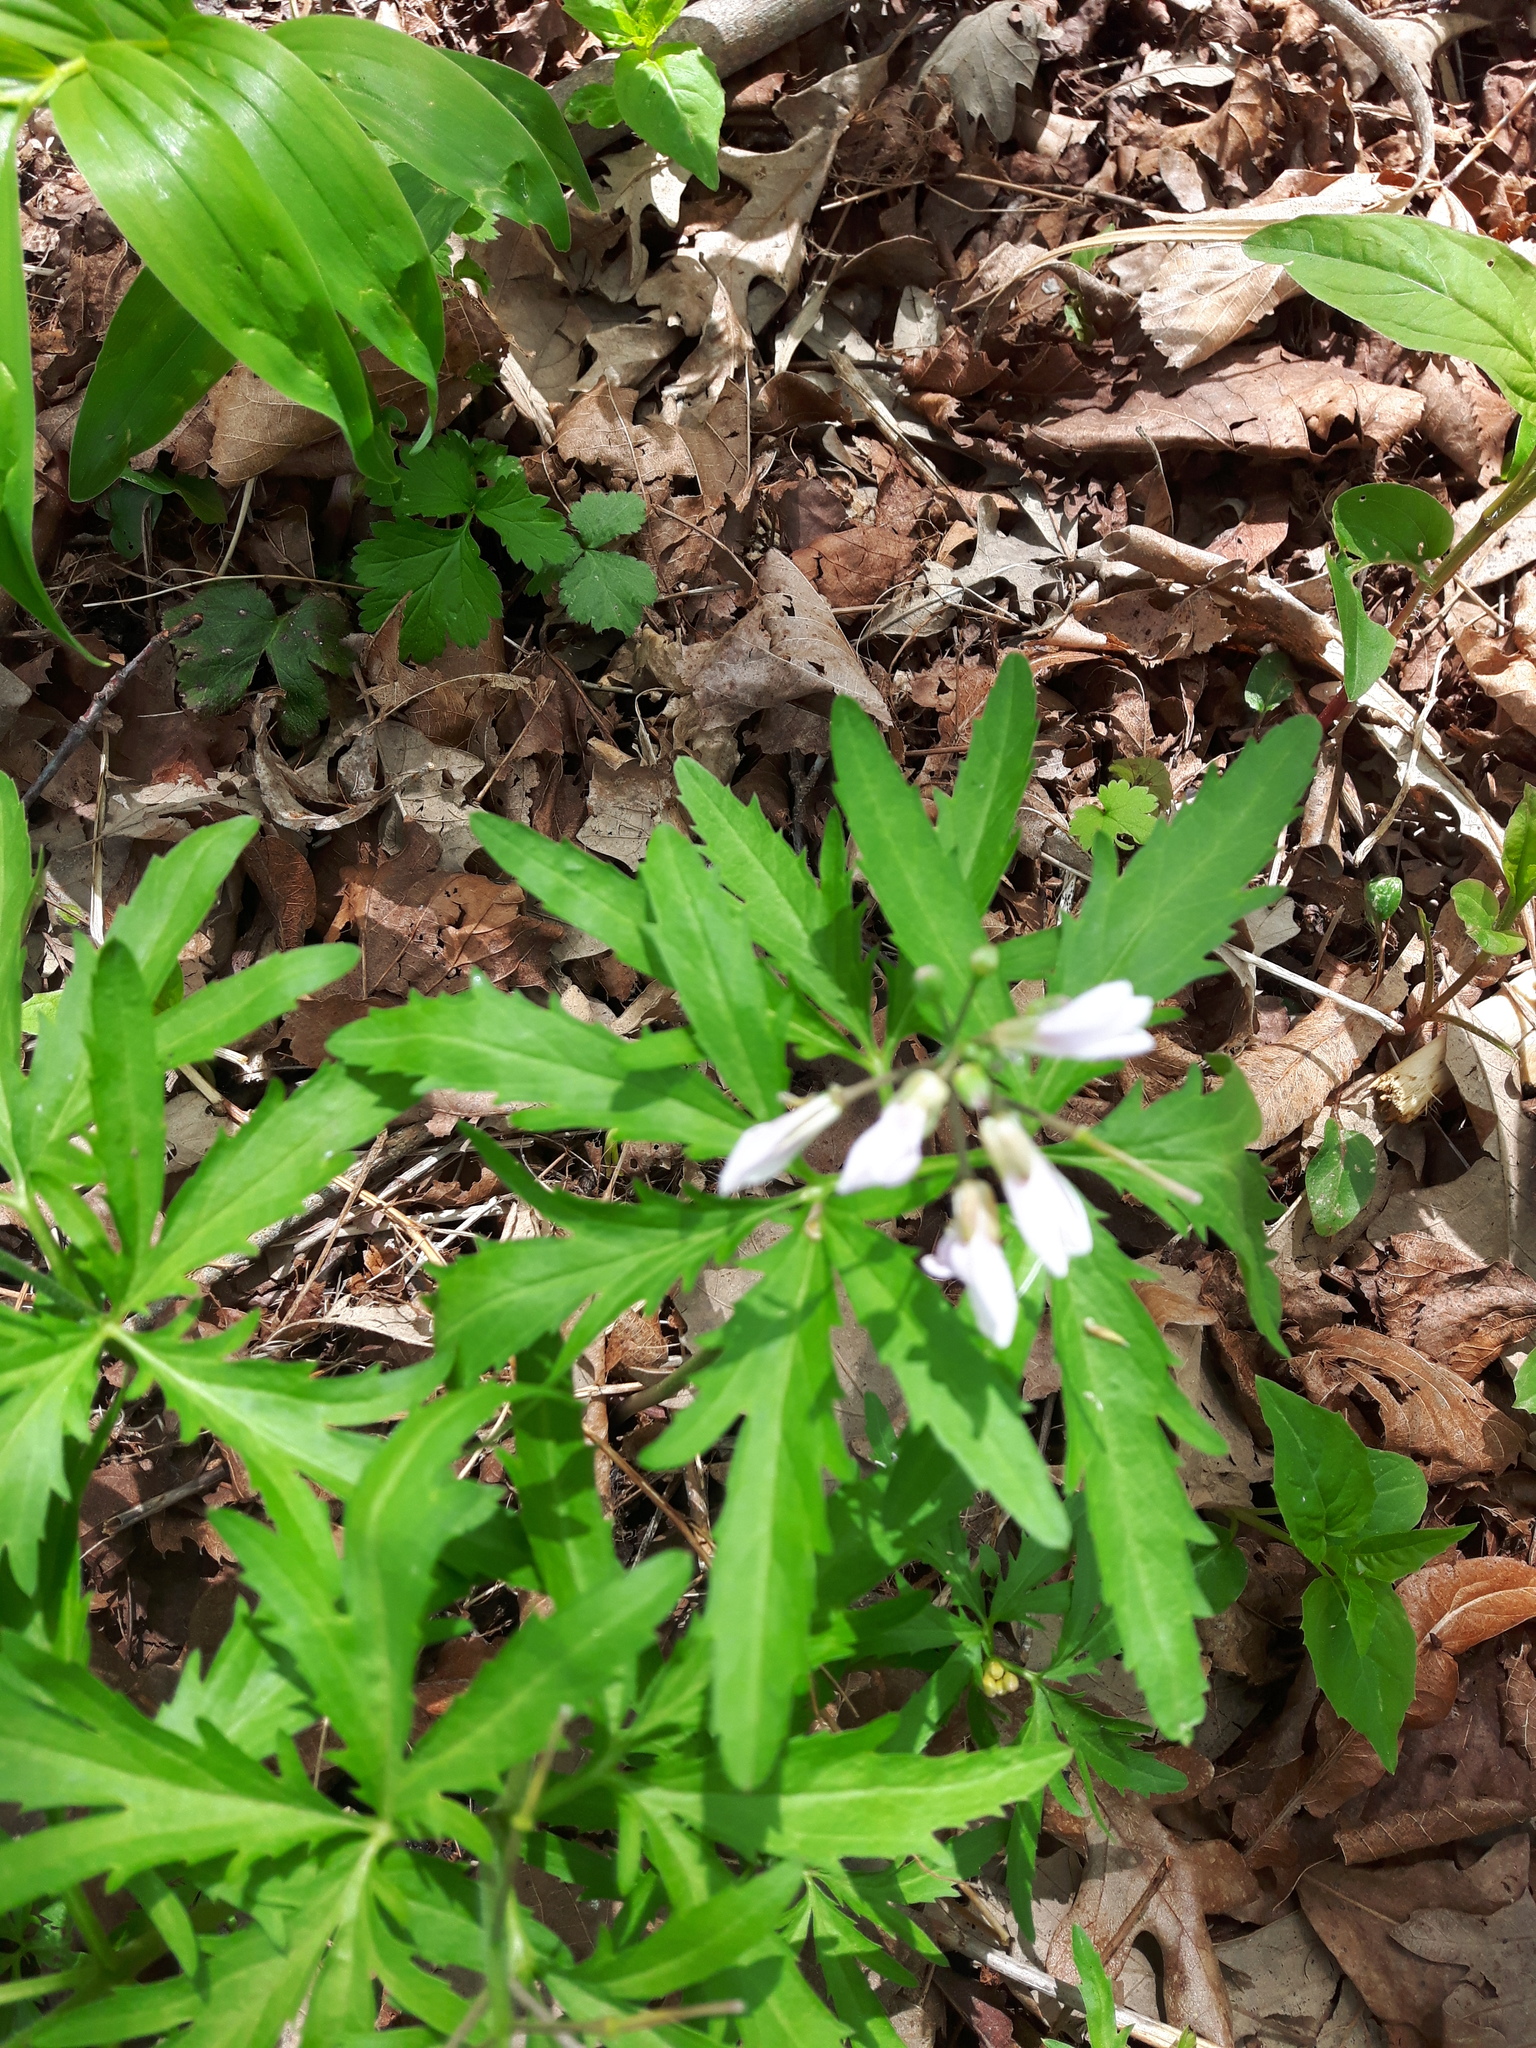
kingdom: Plantae
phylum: Tracheophyta
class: Magnoliopsida
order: Brassicales
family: Brassicaceae
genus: Cardamine
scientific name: Cardamine concatenata
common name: Cut-leaf toothcup
